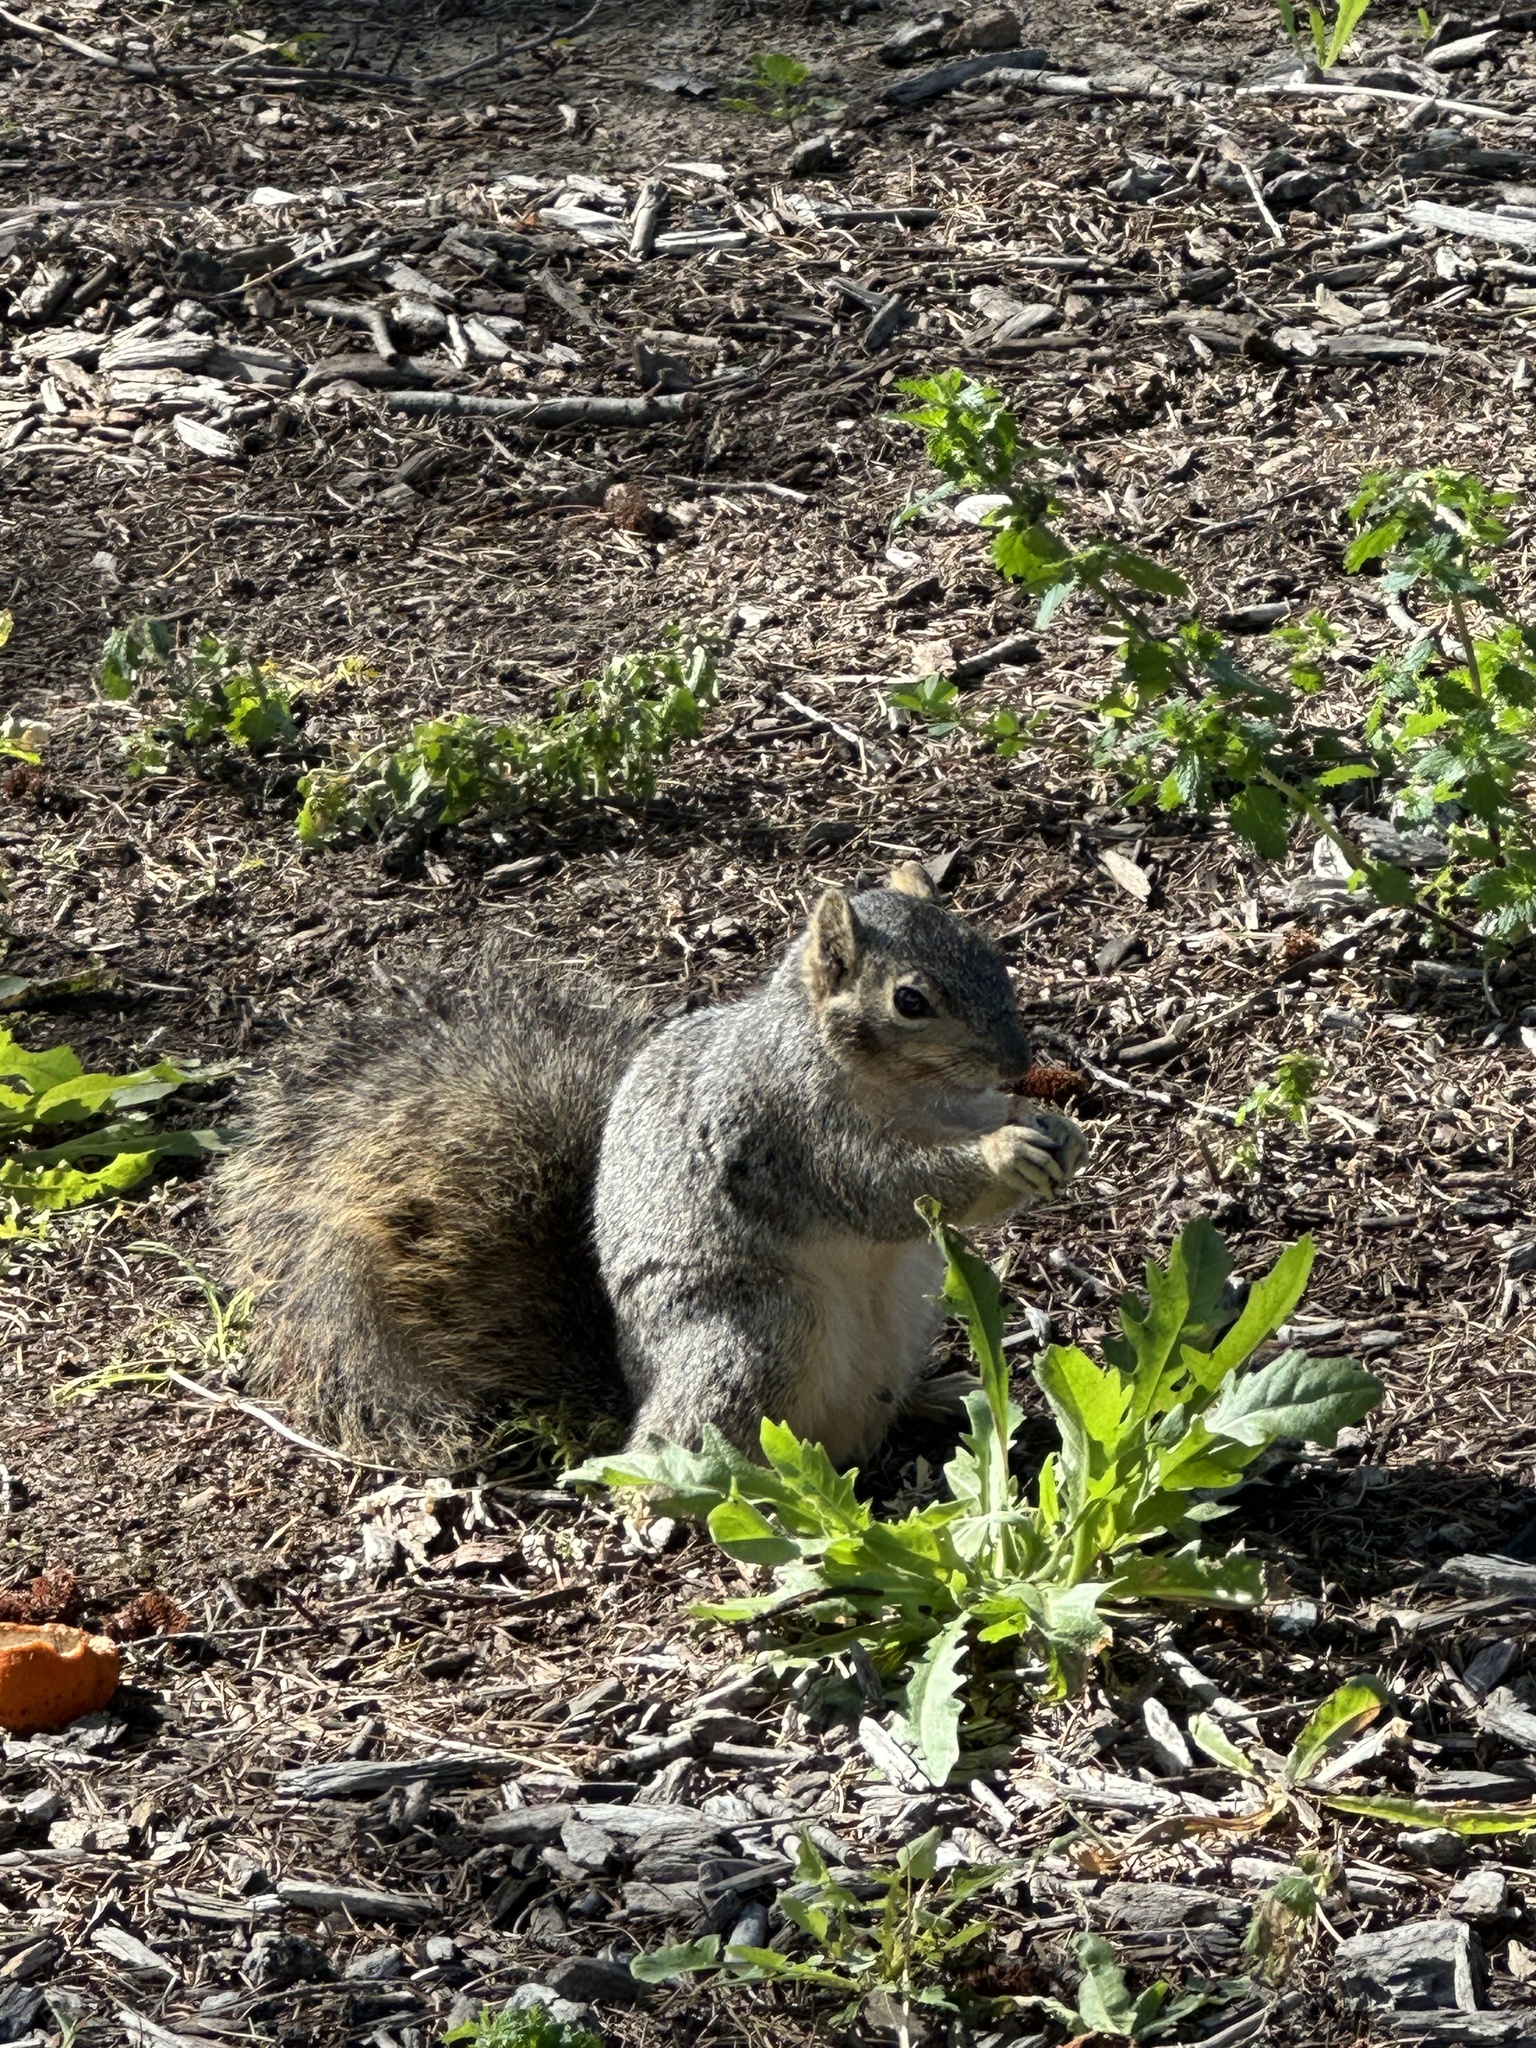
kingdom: Animalia
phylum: Chordata
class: Mammalia
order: Rodentia
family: Sciuridae
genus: Sciurus
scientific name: Sciurus niger
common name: Fox squirrel
